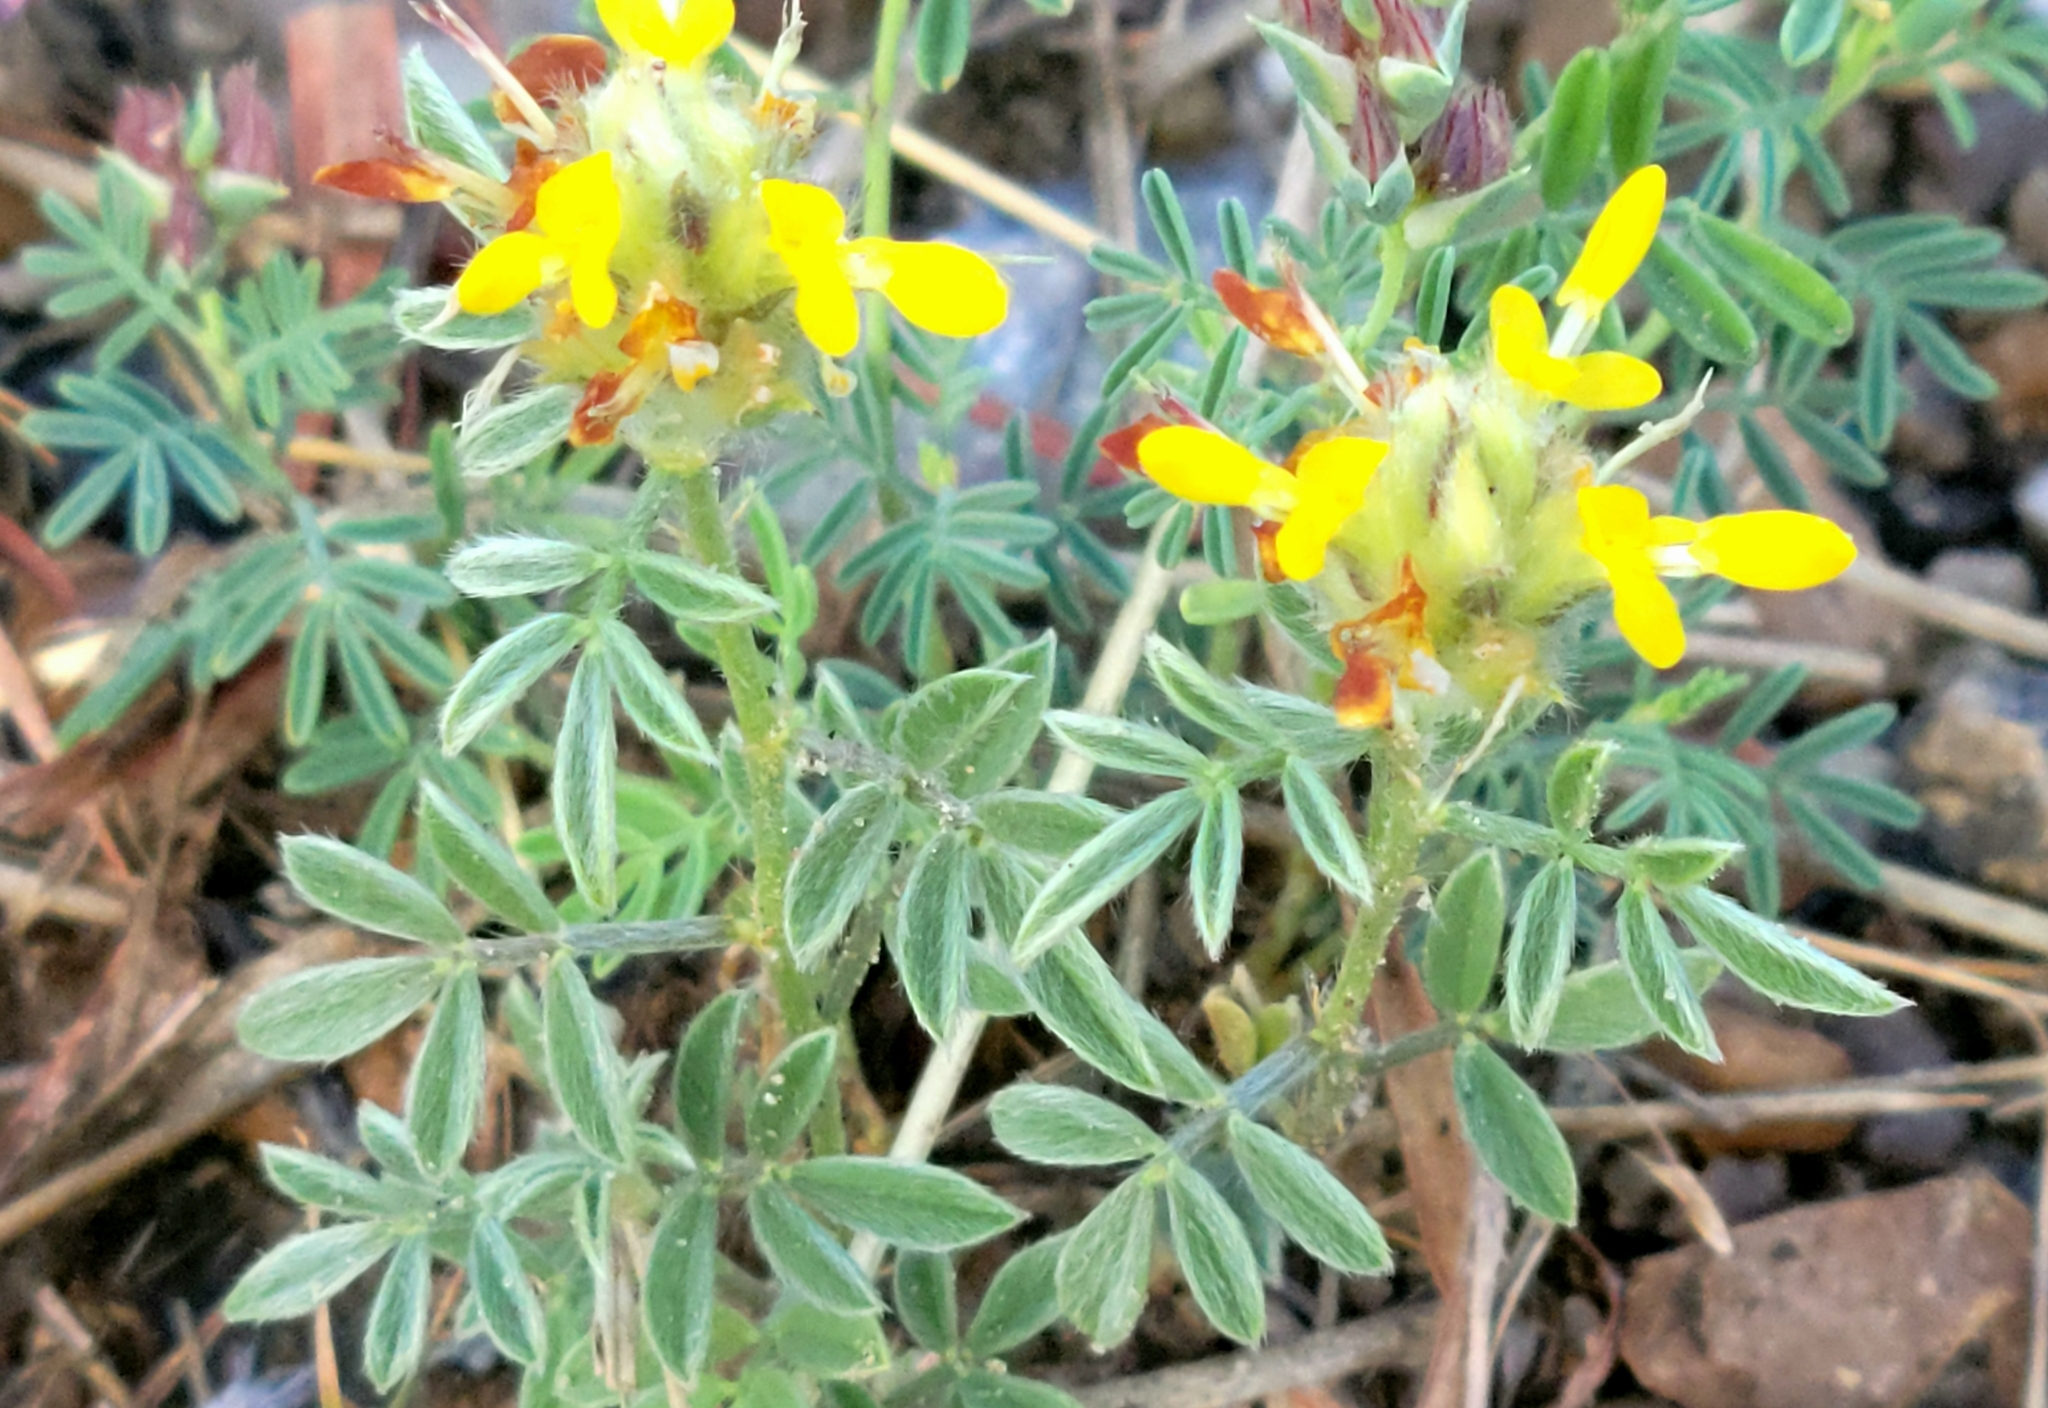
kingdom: Plantae
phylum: Tracheophyta
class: Magnoliopsida
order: Fabales
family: Fabaceae
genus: Dalea
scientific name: Dalea nana
